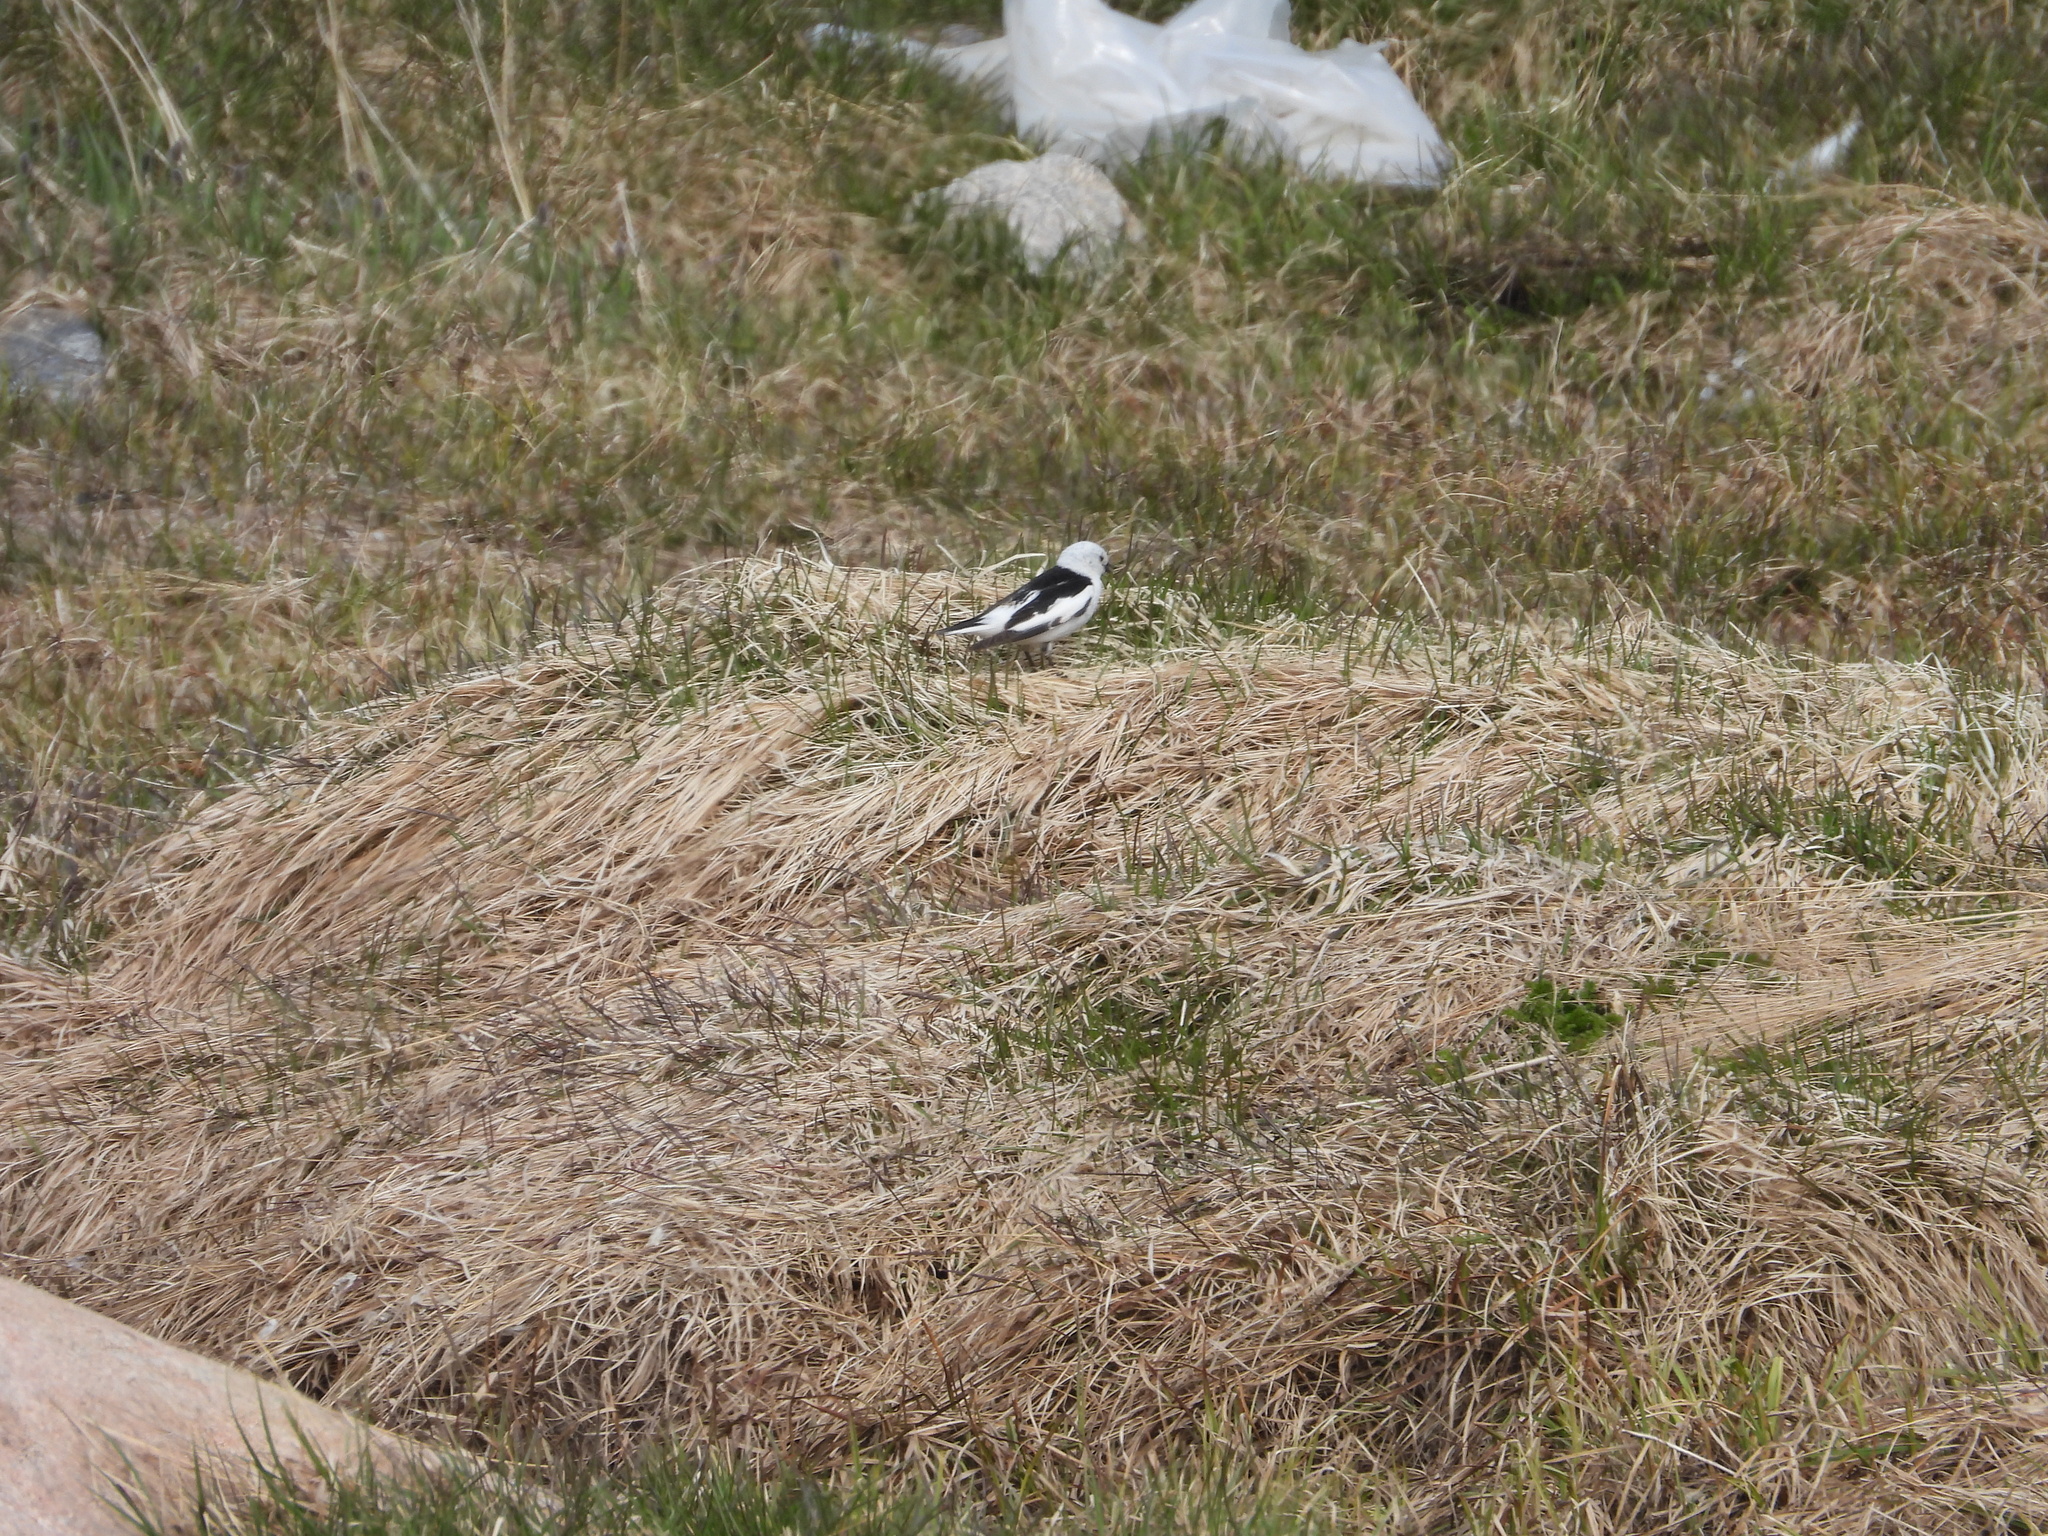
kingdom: Animalia
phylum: Chordata
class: Aves
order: Passeriformes
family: Calcariidae
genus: Plectrophenax
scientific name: Plectrophenax nivalis
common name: Snow bunting
